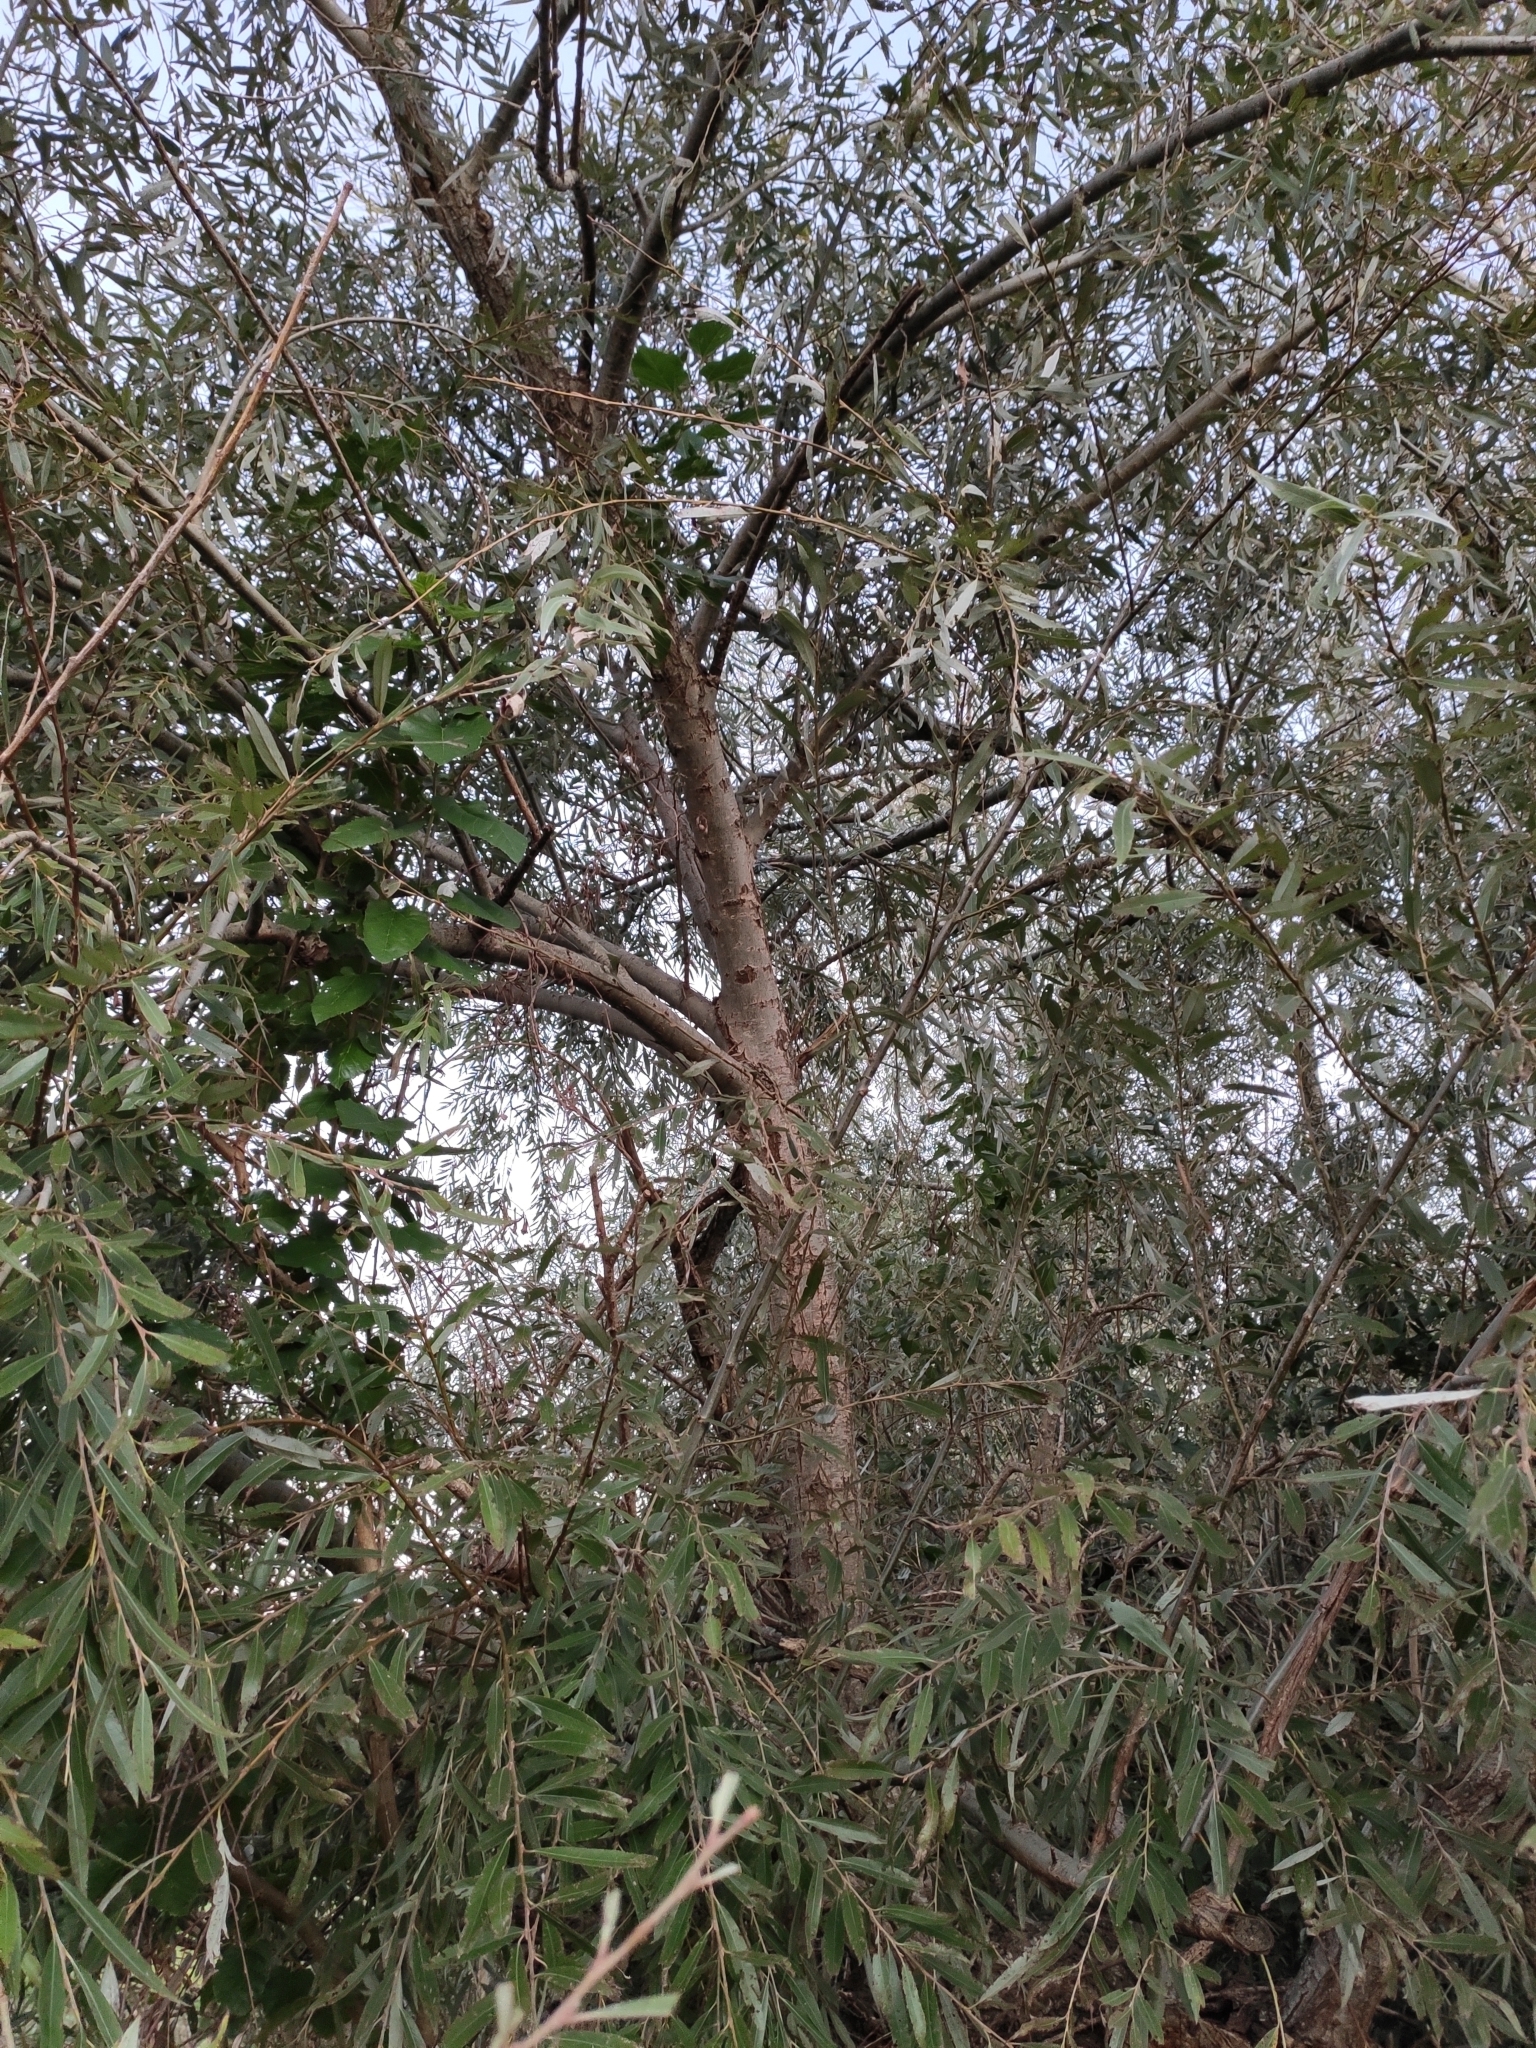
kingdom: Plantae
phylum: Tracheophyta
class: Magnoliopsida
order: Malpighiales
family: Salicaceae
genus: Salix
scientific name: Salix fragilis
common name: Crack willow
